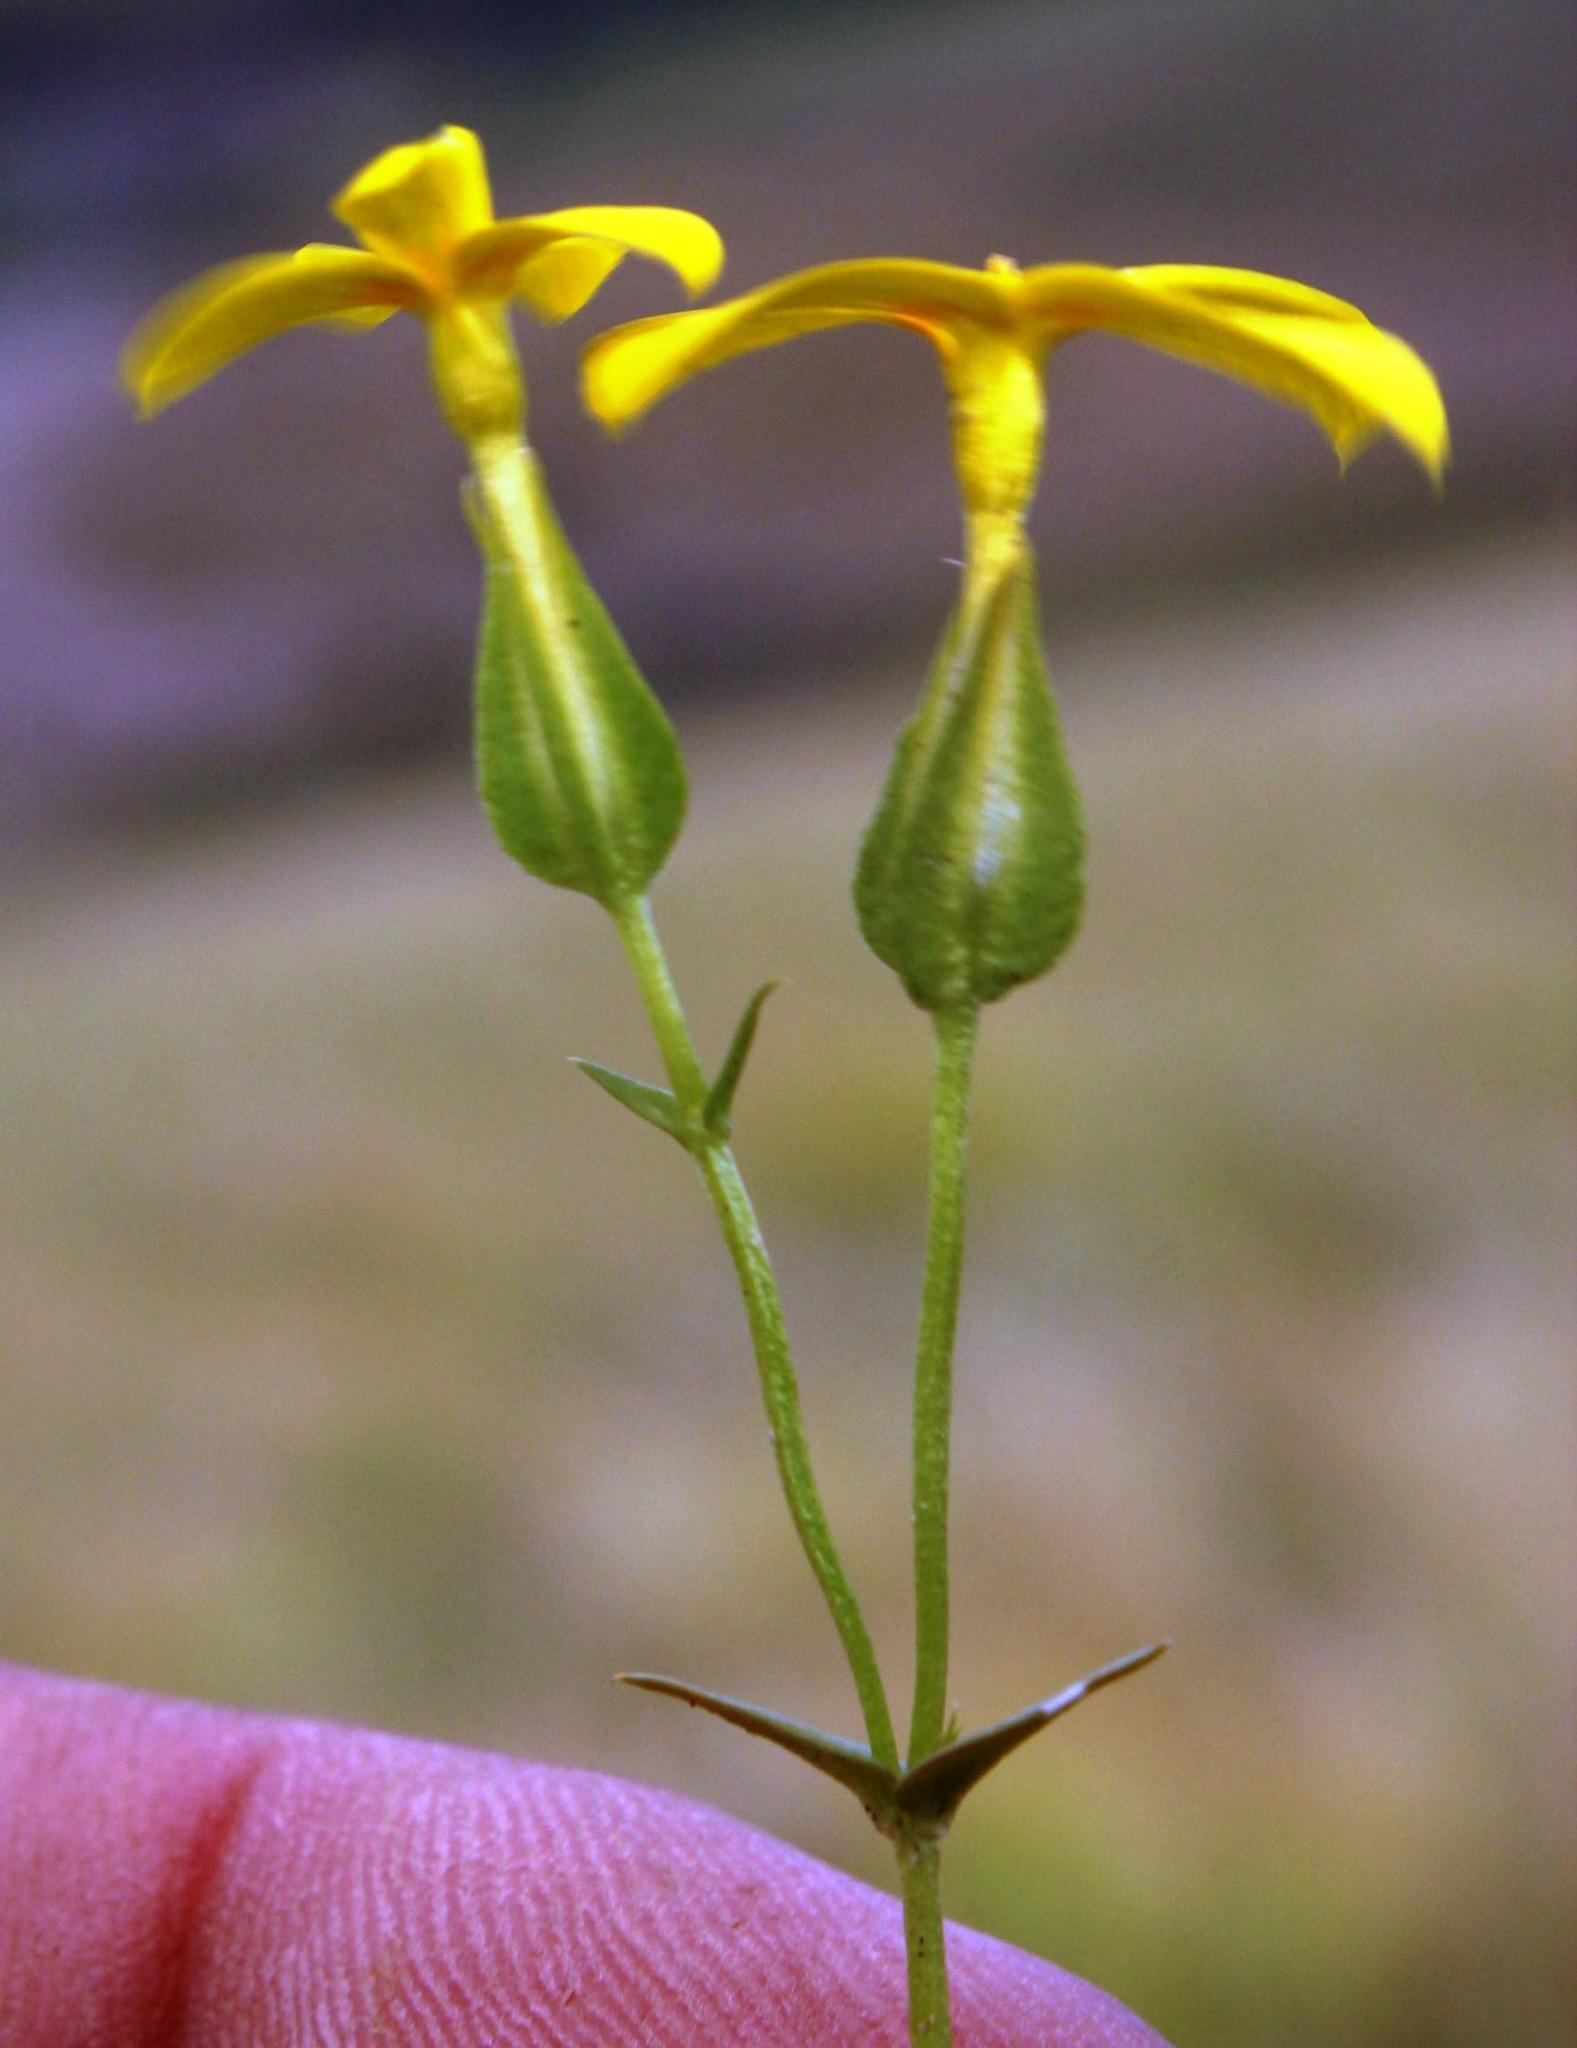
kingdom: Plantae
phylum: Tracheophyta
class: Magnoliopsida
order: Gentianales
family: Gentianaceae
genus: Sebaea
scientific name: Sebaea exacoides
